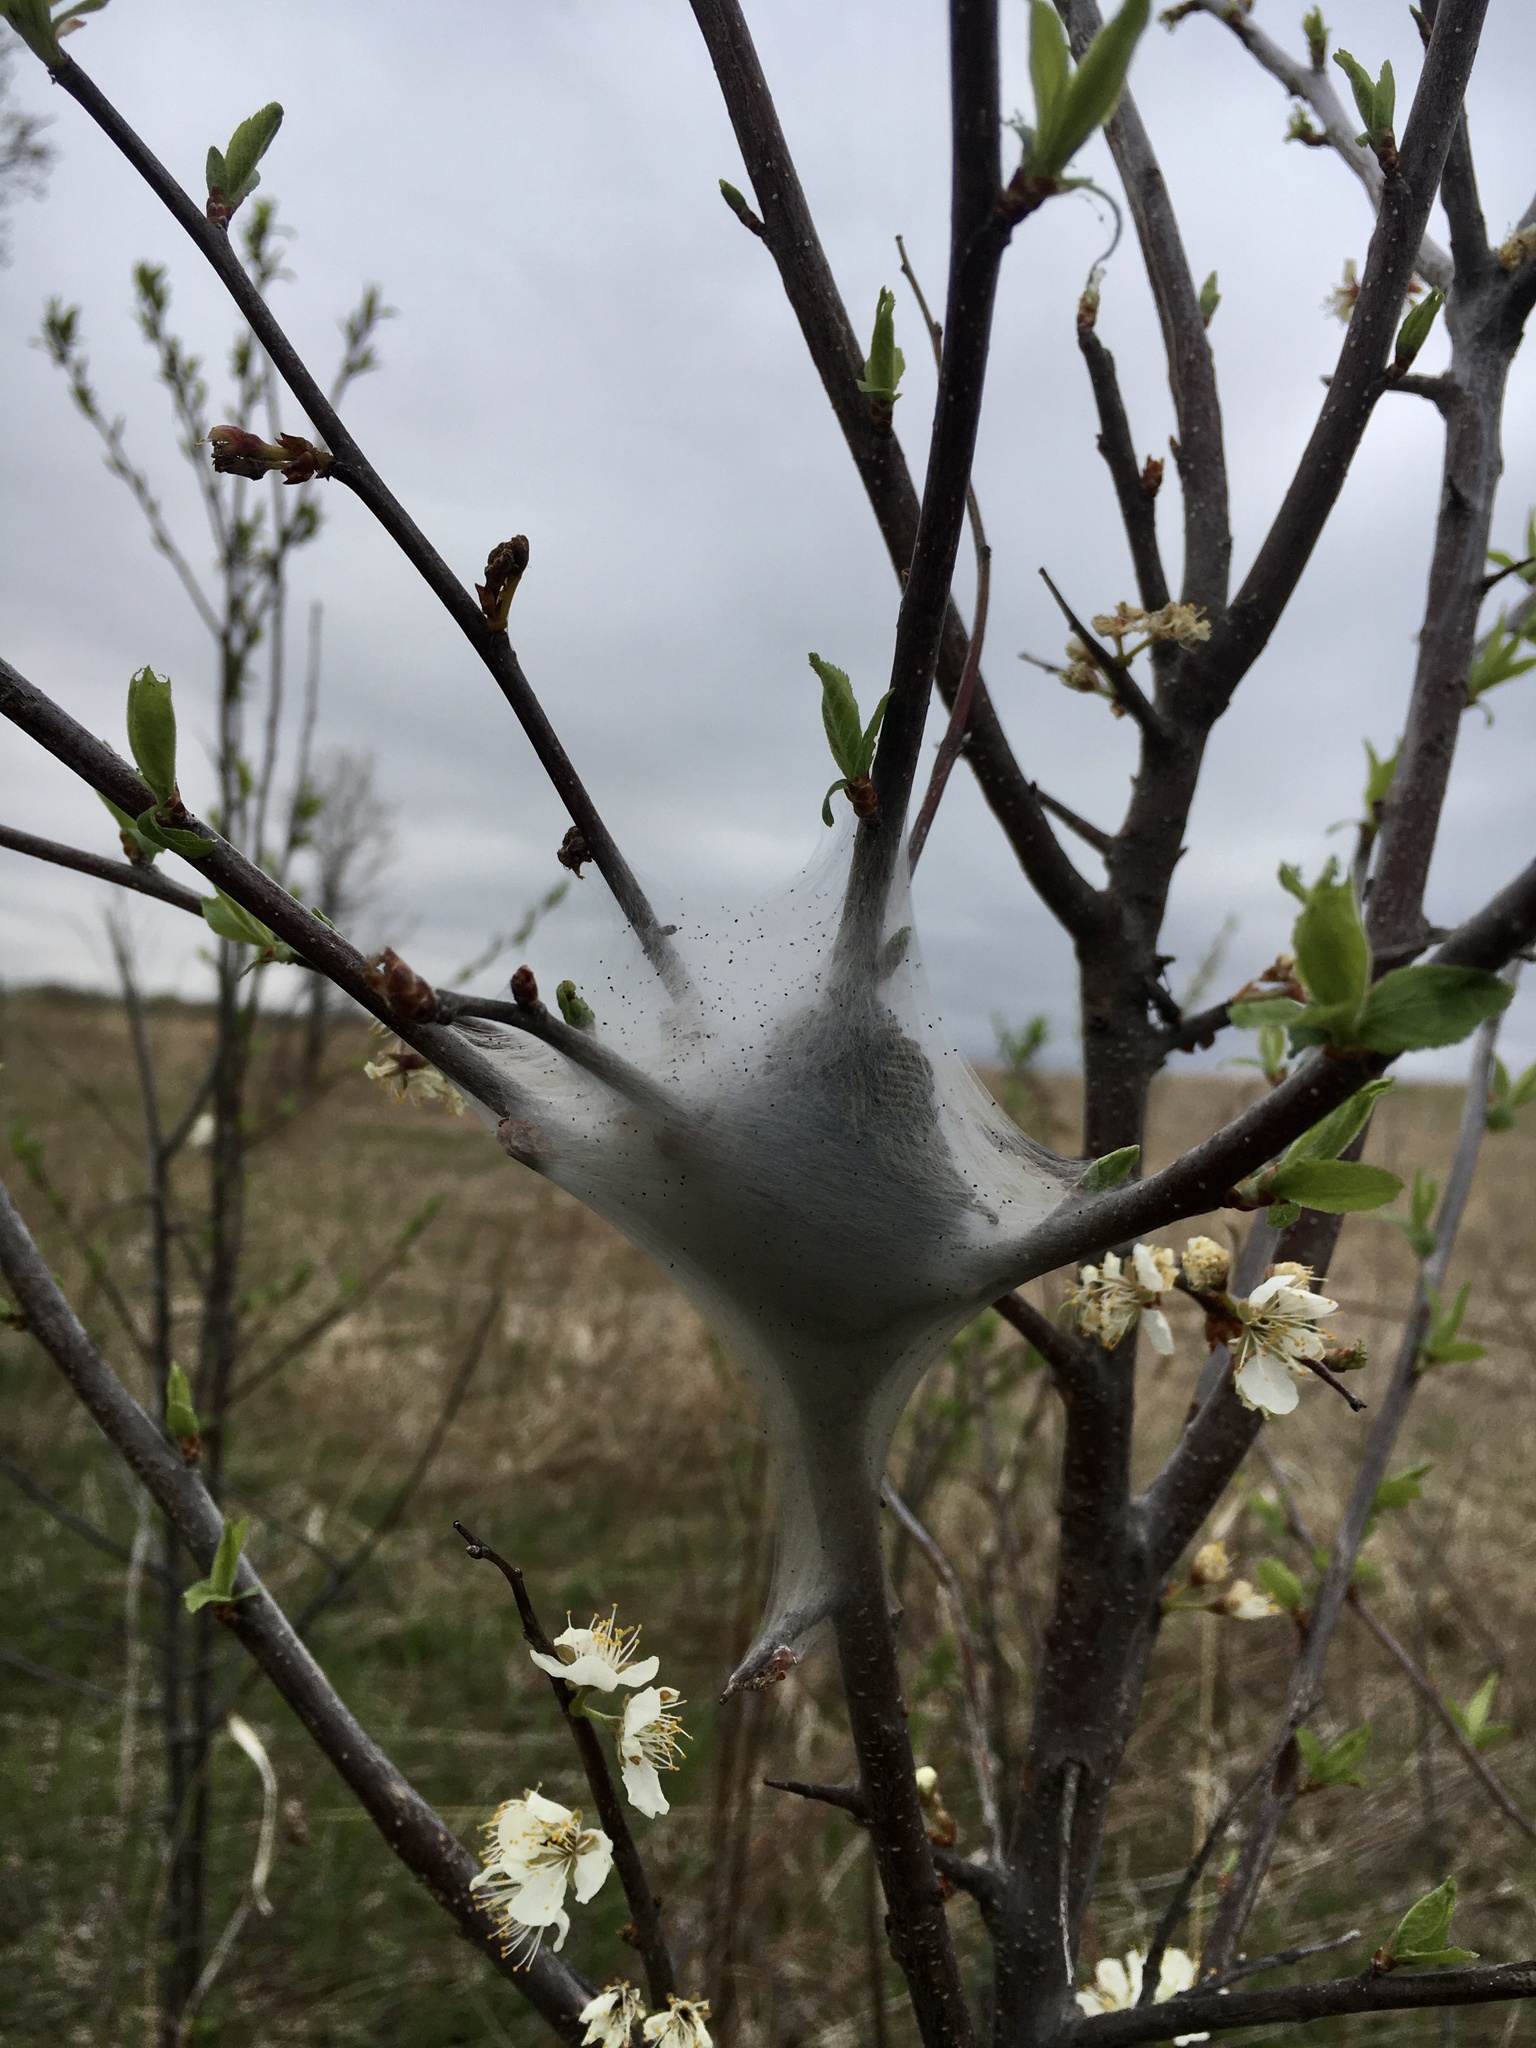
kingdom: Animalia
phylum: Arthropoda
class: Insecta
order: Lepidoptera
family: Lasiocampidae
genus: Malacosoma
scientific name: Malacosoma americana
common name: Eastern tent caterpillar moth
